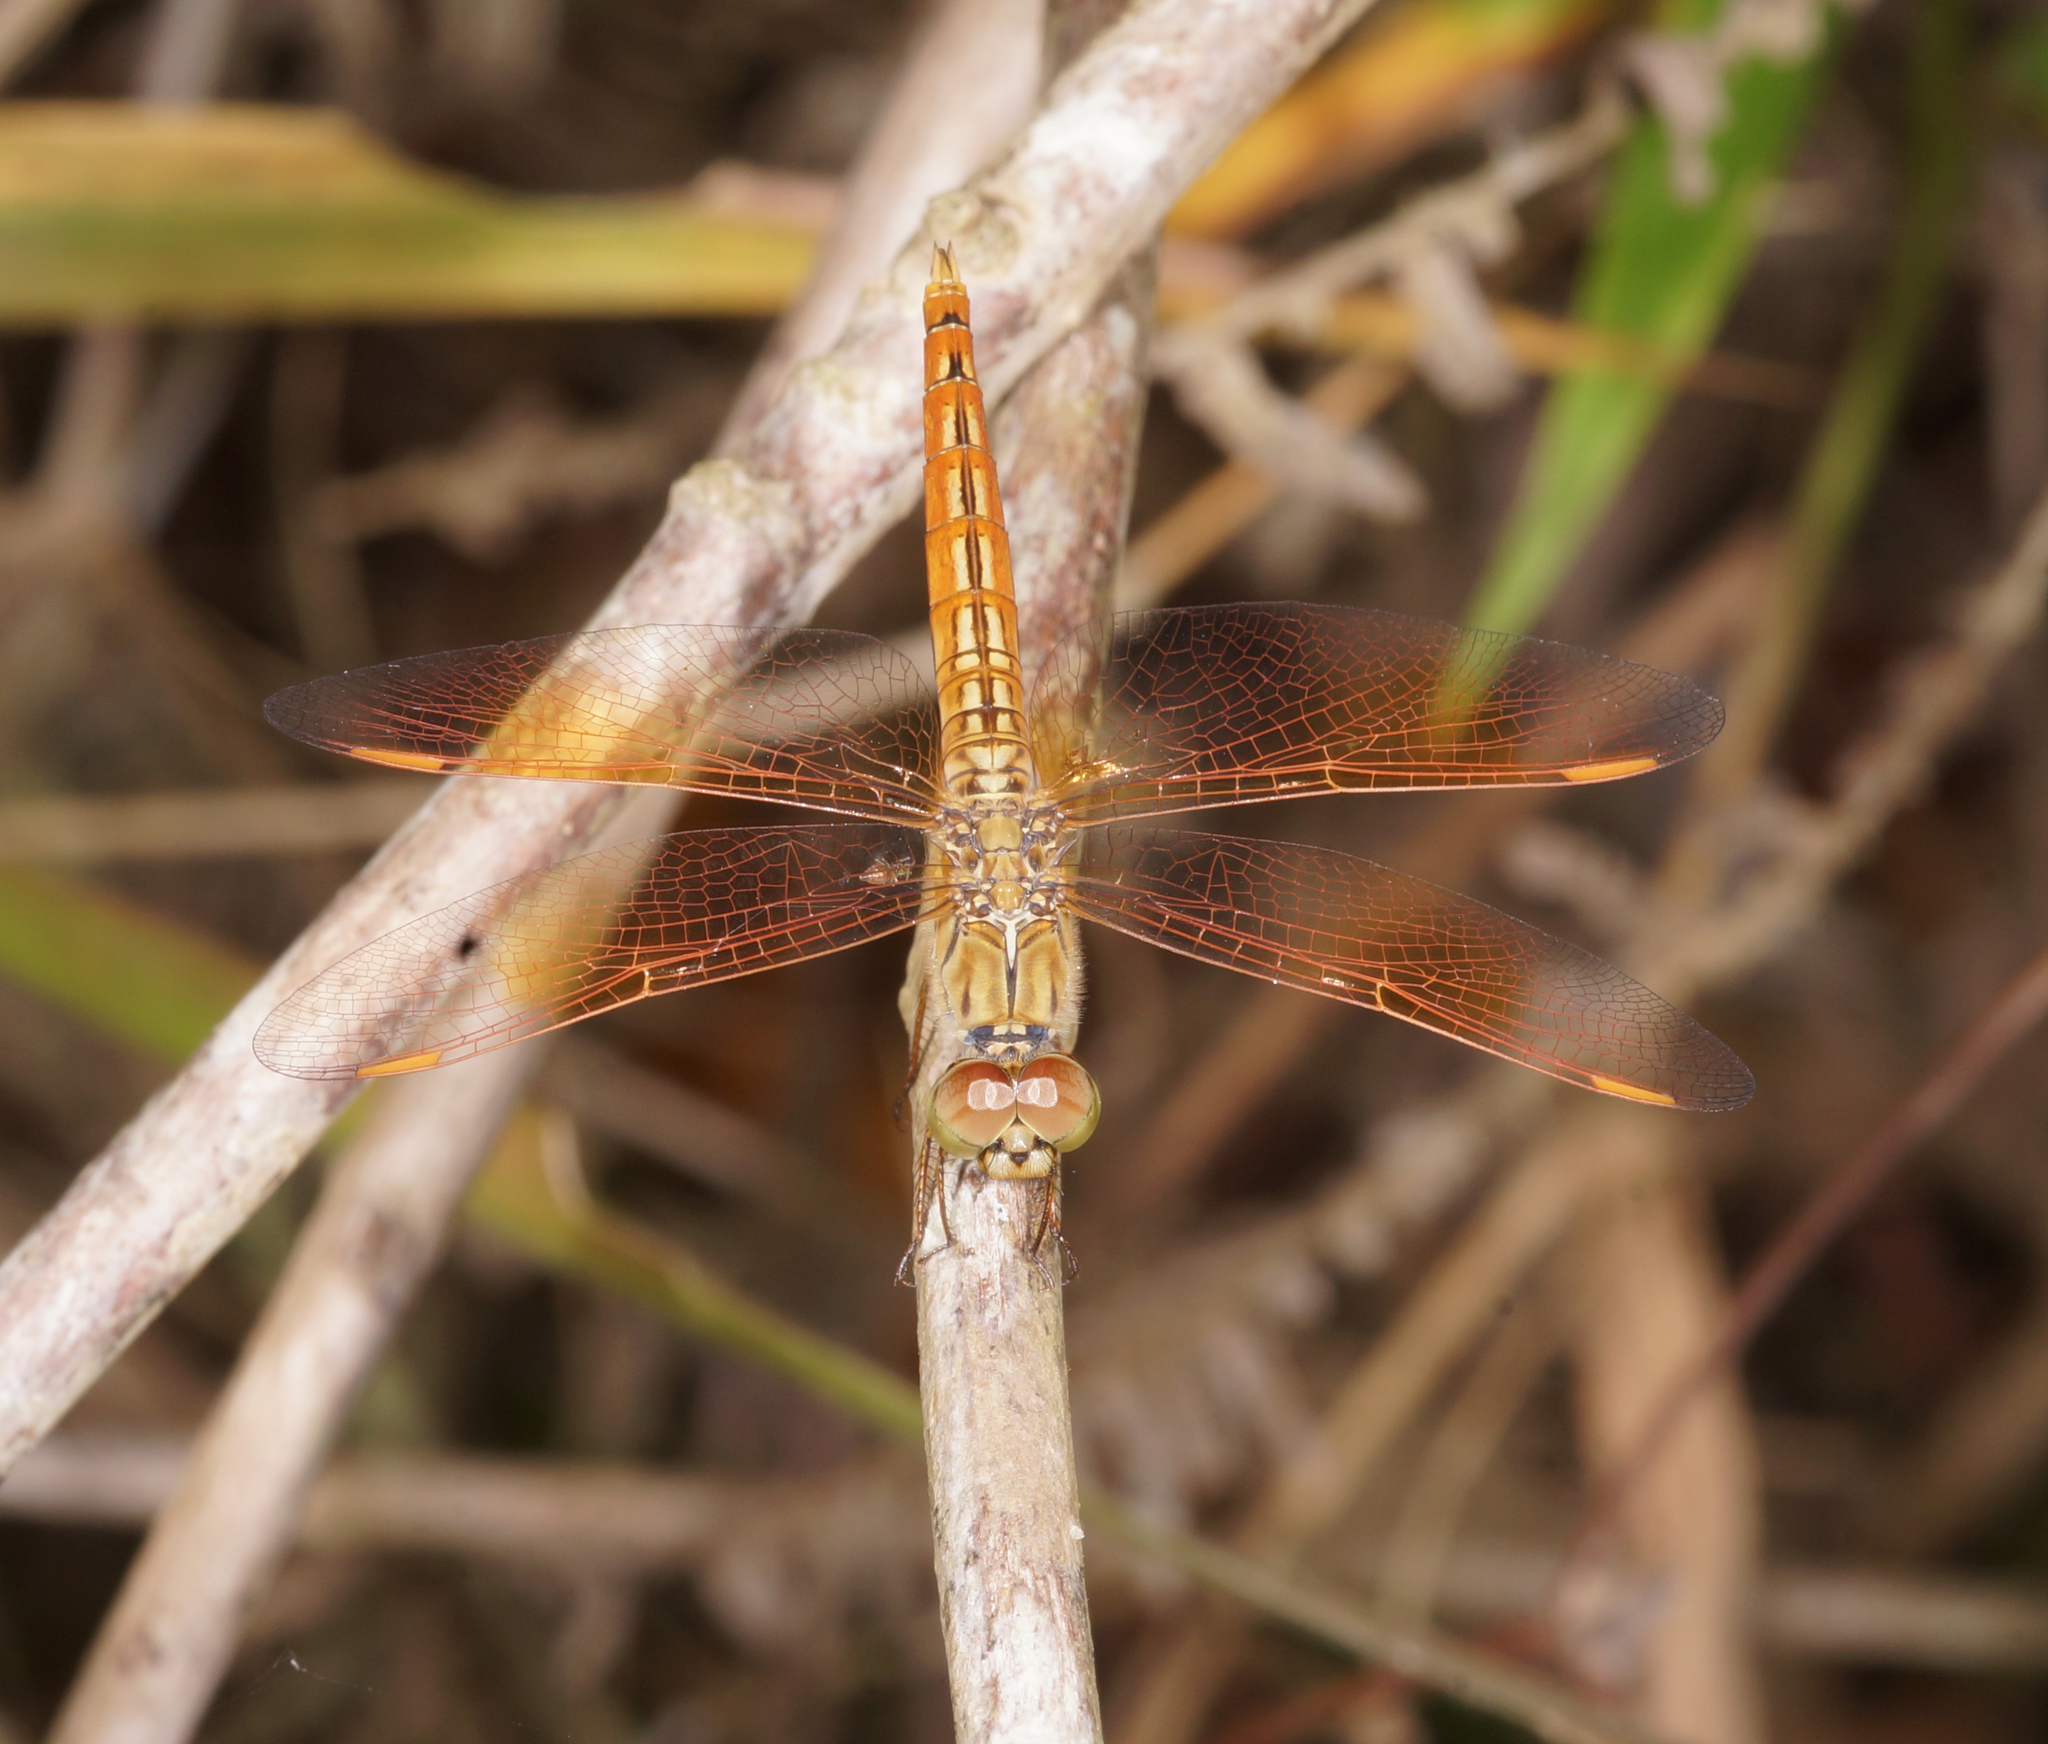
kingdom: Animalia
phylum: Arthropoda
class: Insecta
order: Odonata
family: Libellulidae
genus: Brachythemis
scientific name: Brachythemis contaminata
